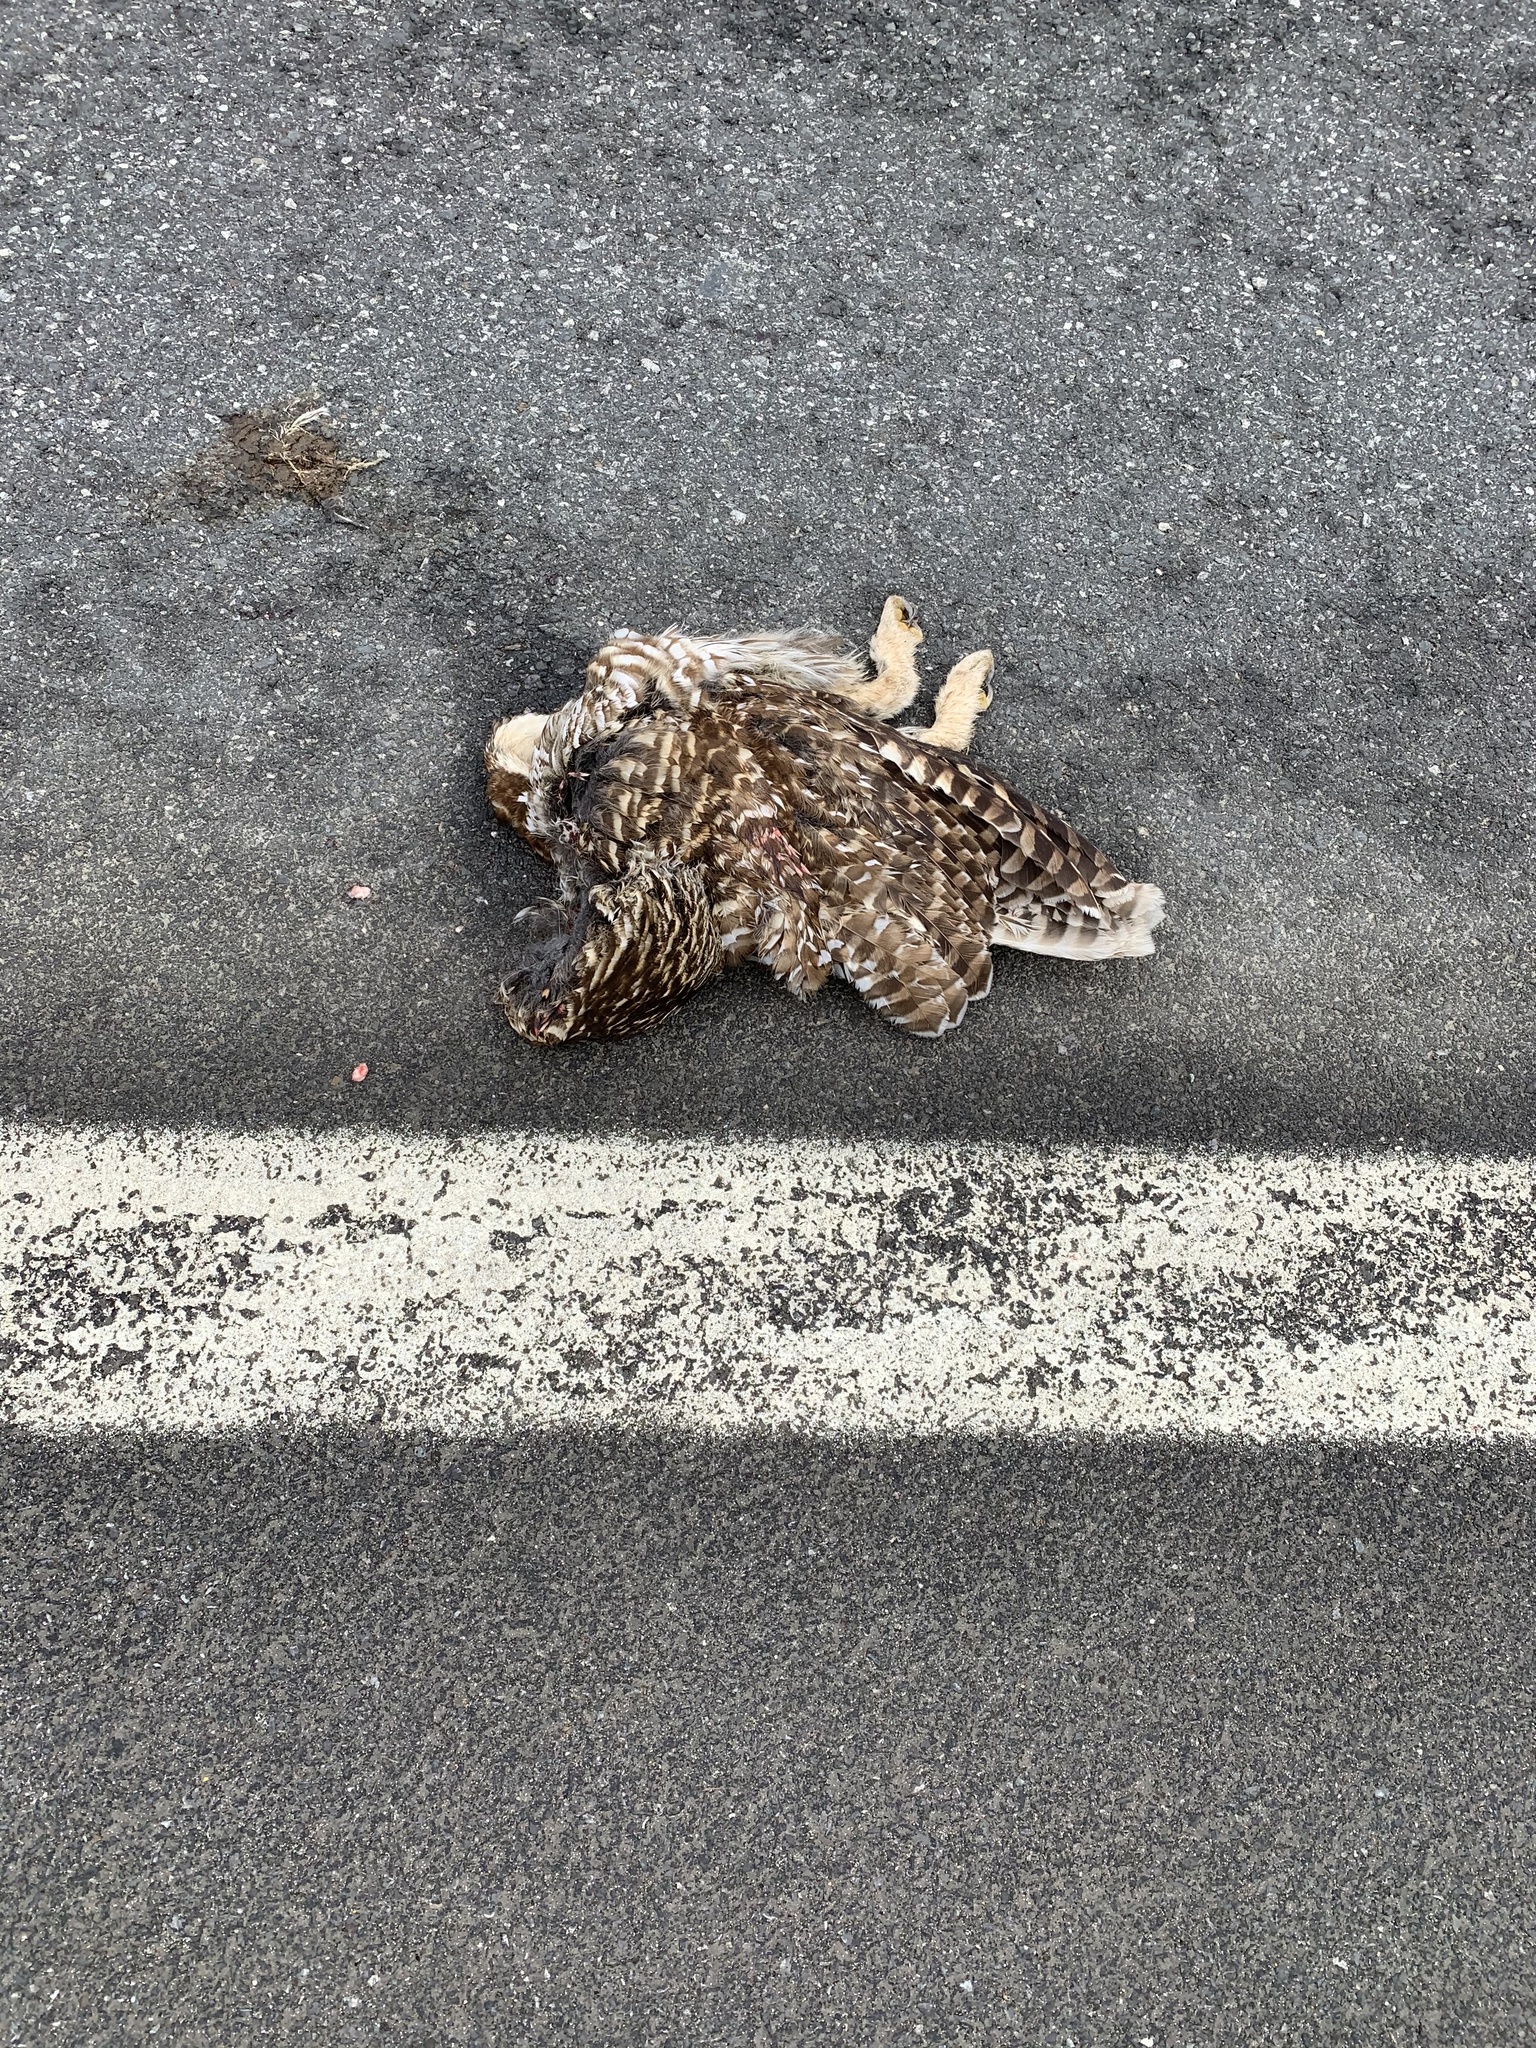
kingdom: Animalia
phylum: Chordata
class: Aves
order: Strigiformes
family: Strigidae
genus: Strix
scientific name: Strix varia
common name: Barred owl
